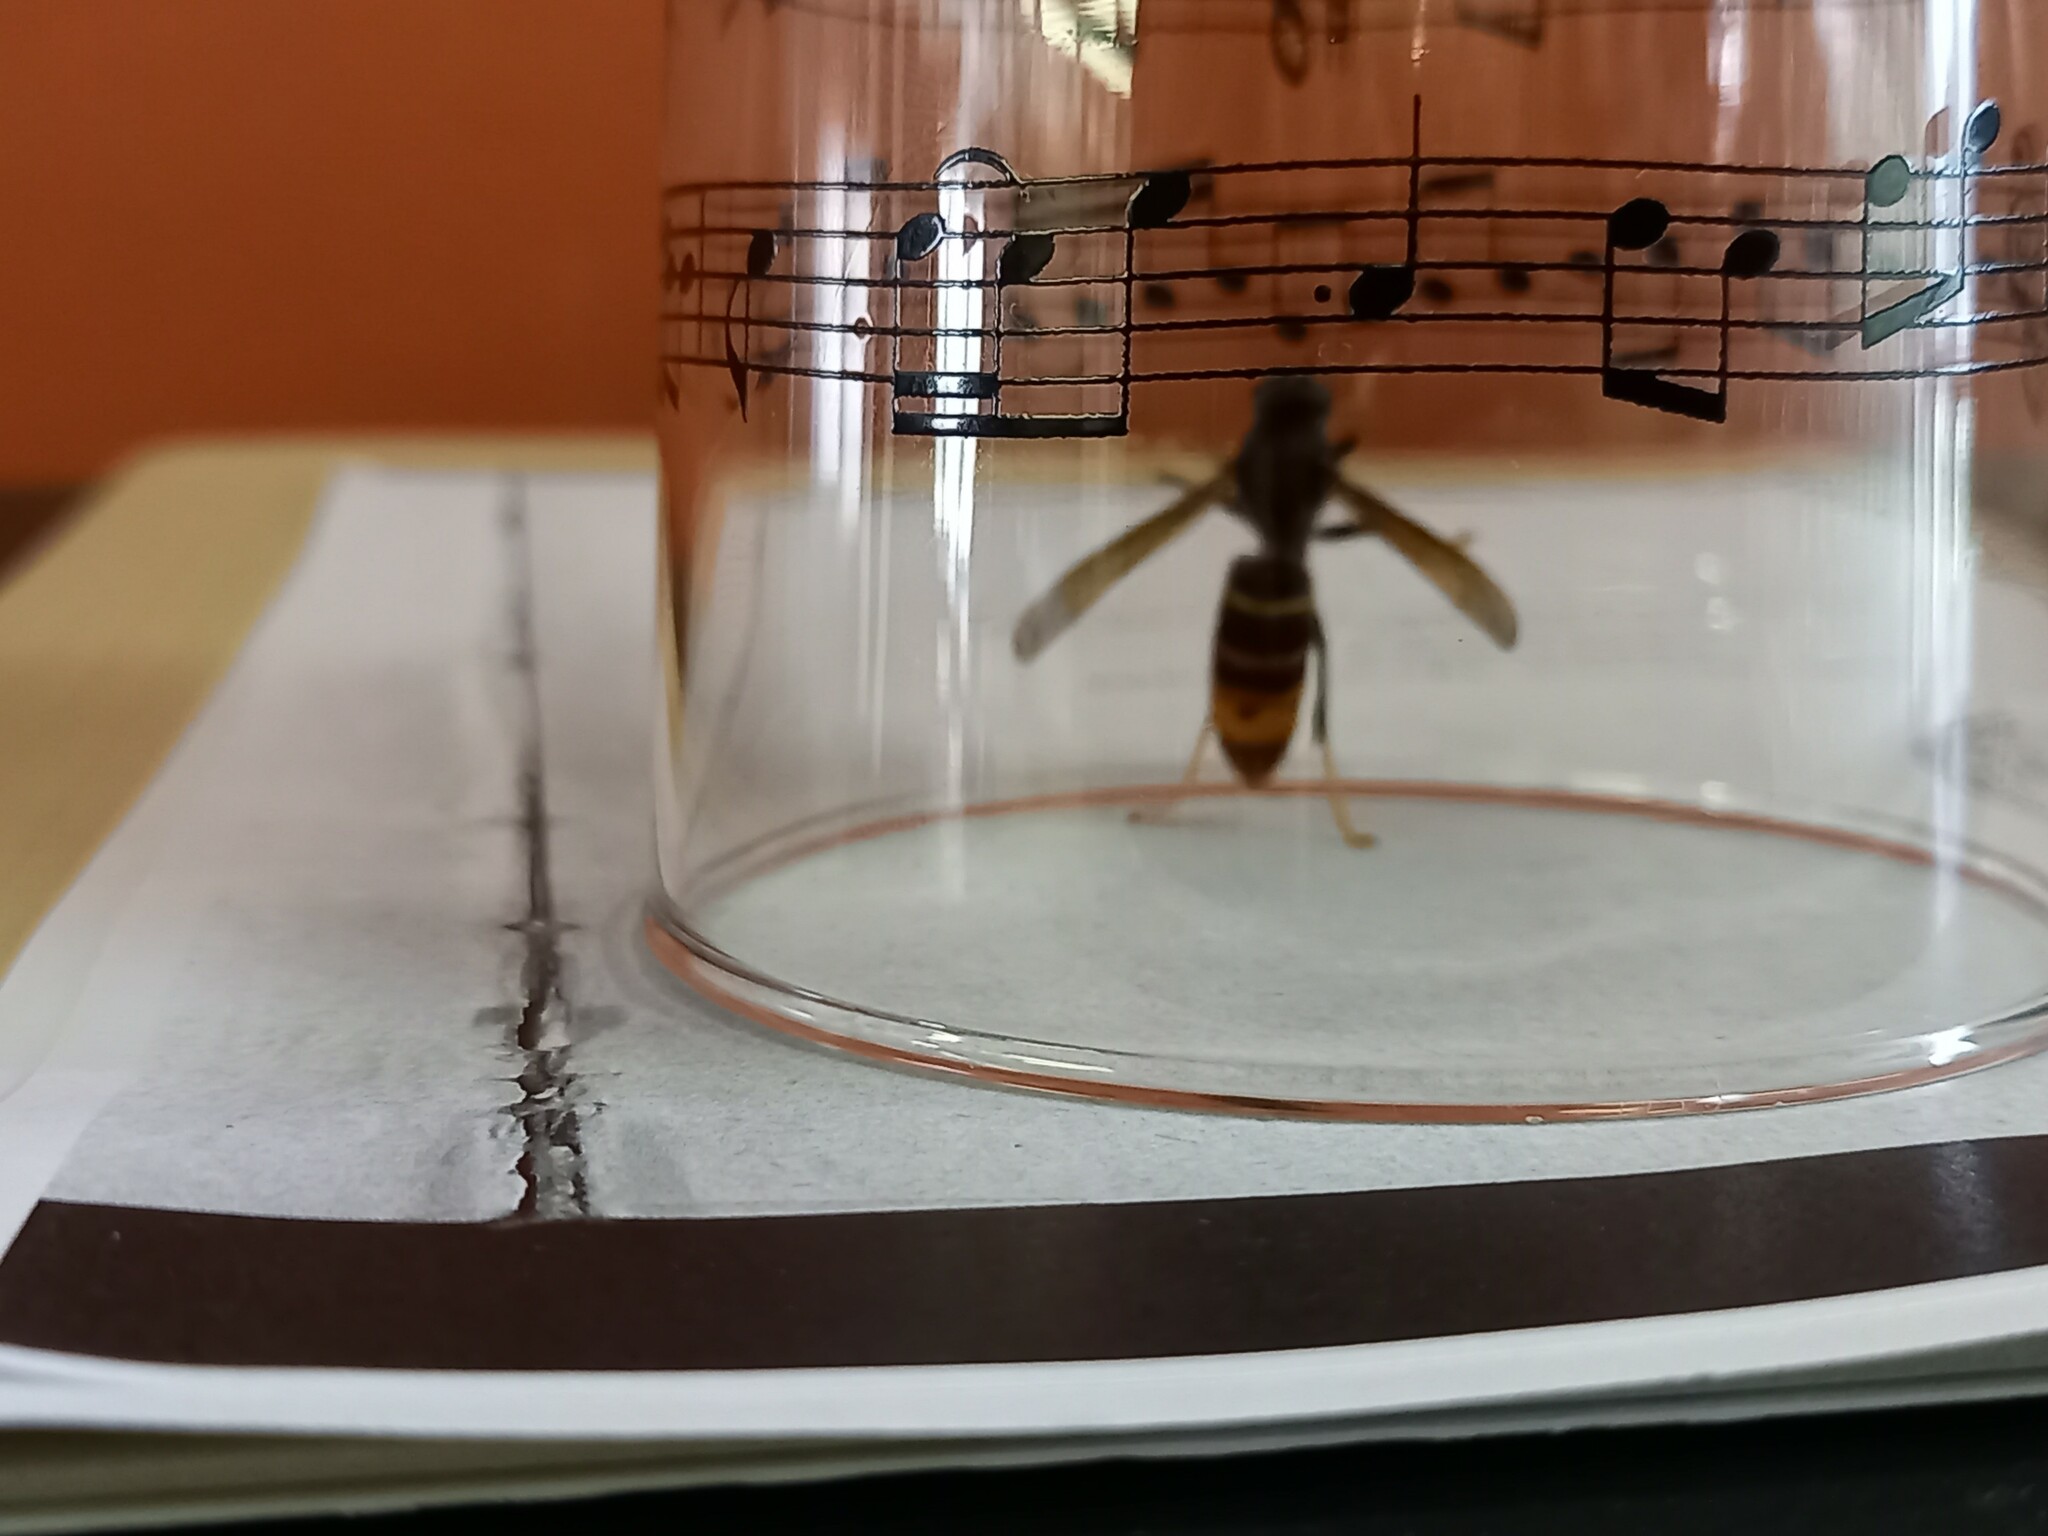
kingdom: Animalia
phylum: Arthropoda
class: Insecta
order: Hymenoptera
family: Vespidae
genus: Vespa
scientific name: Vespa velutina
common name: Asian hornet
